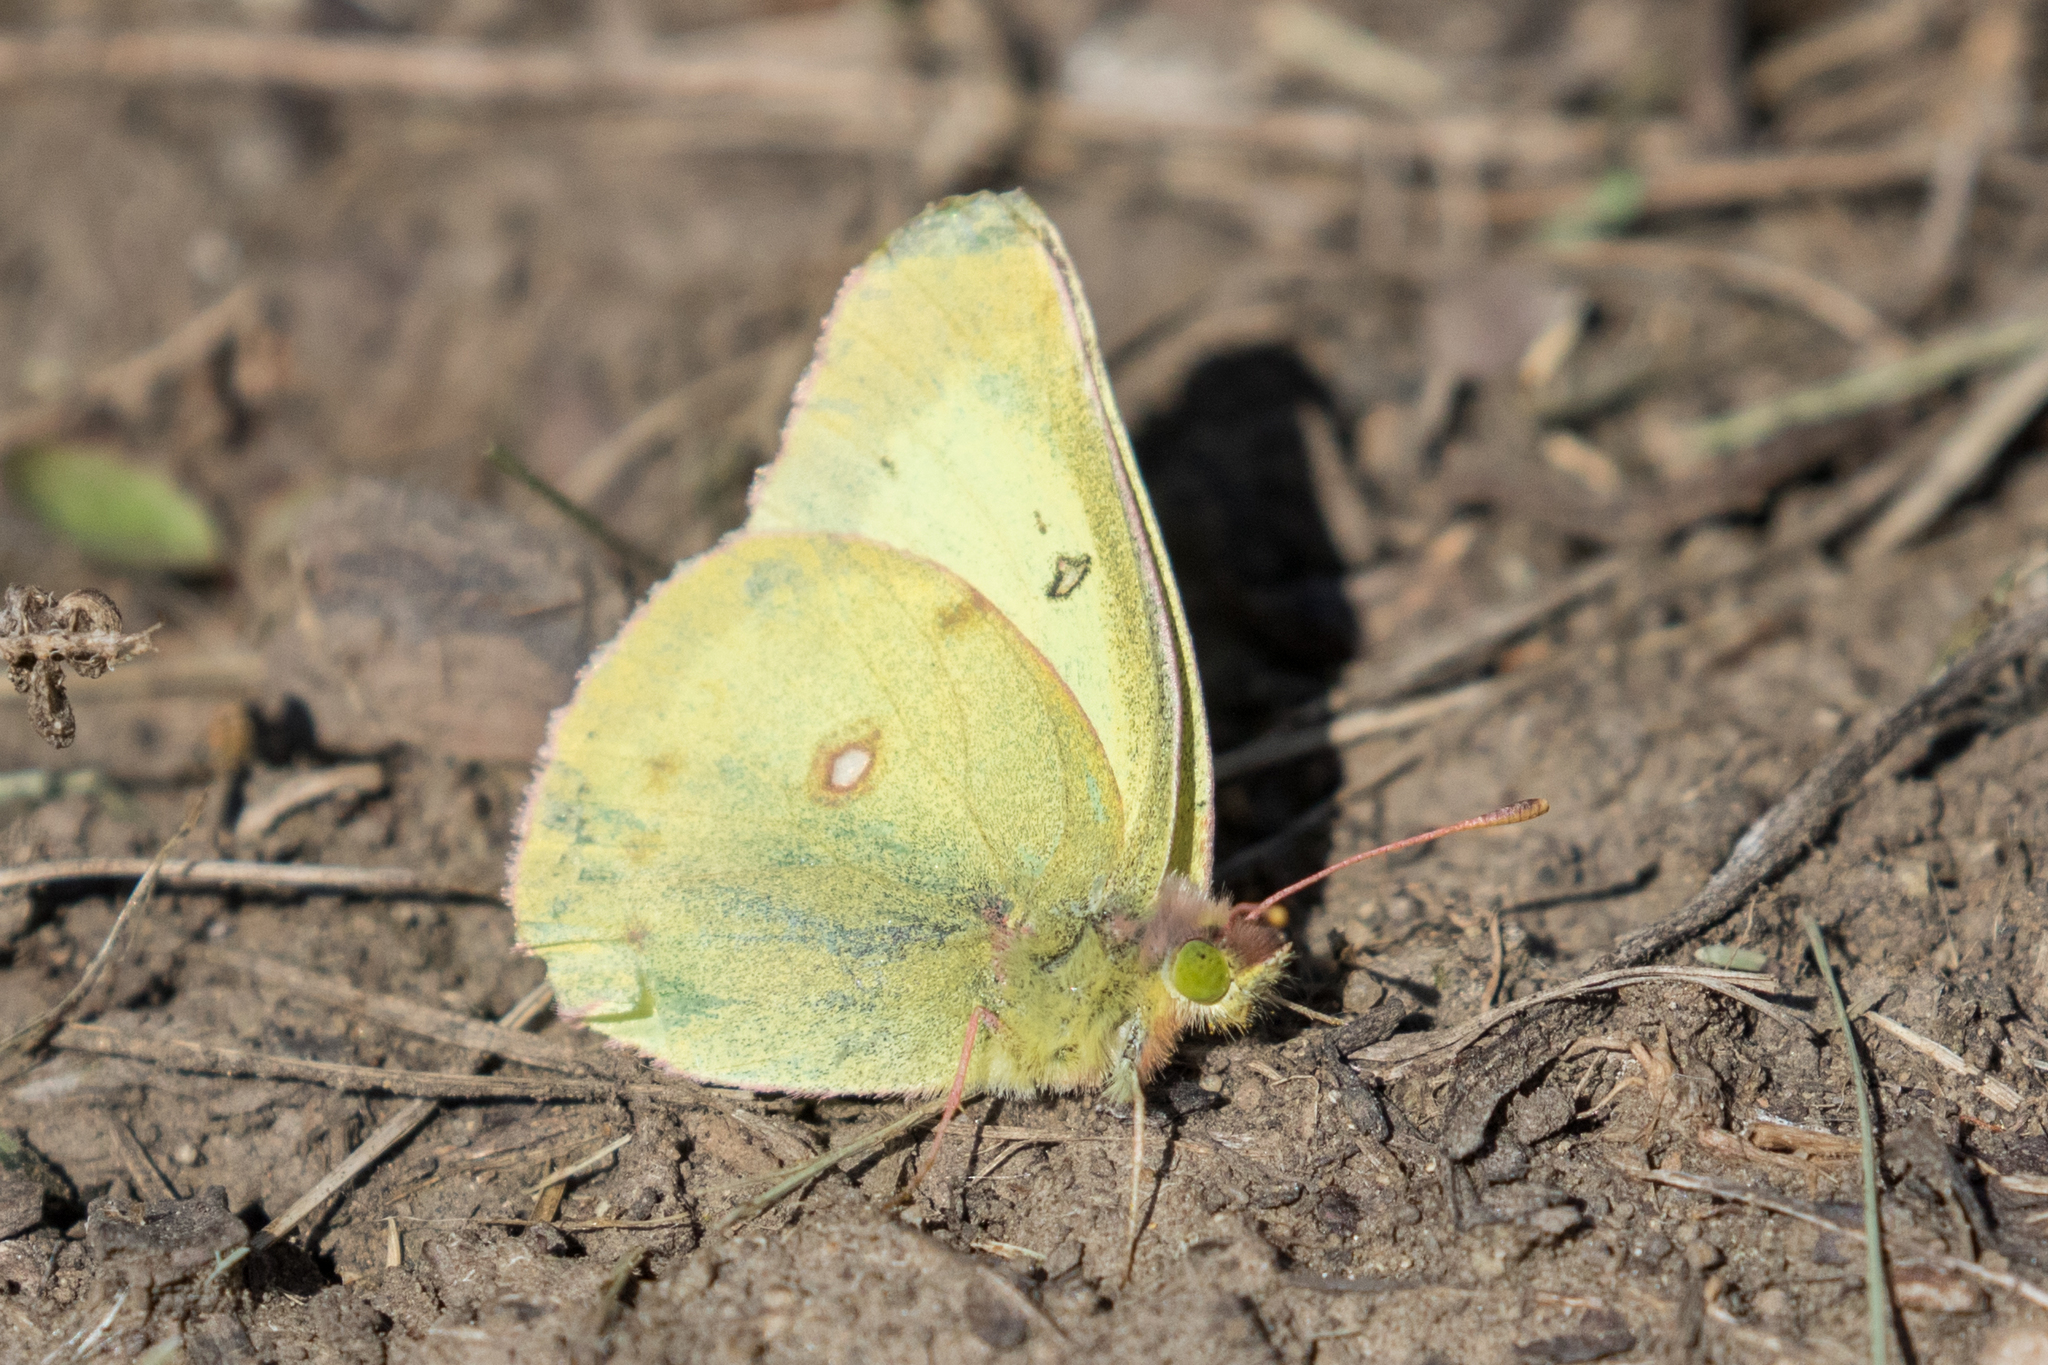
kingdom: Animalia
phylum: Arthropoda
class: Insecta
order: Lepidoptera
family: Pieridae
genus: Colias
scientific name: Colias philodice
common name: Clouded sulphur
